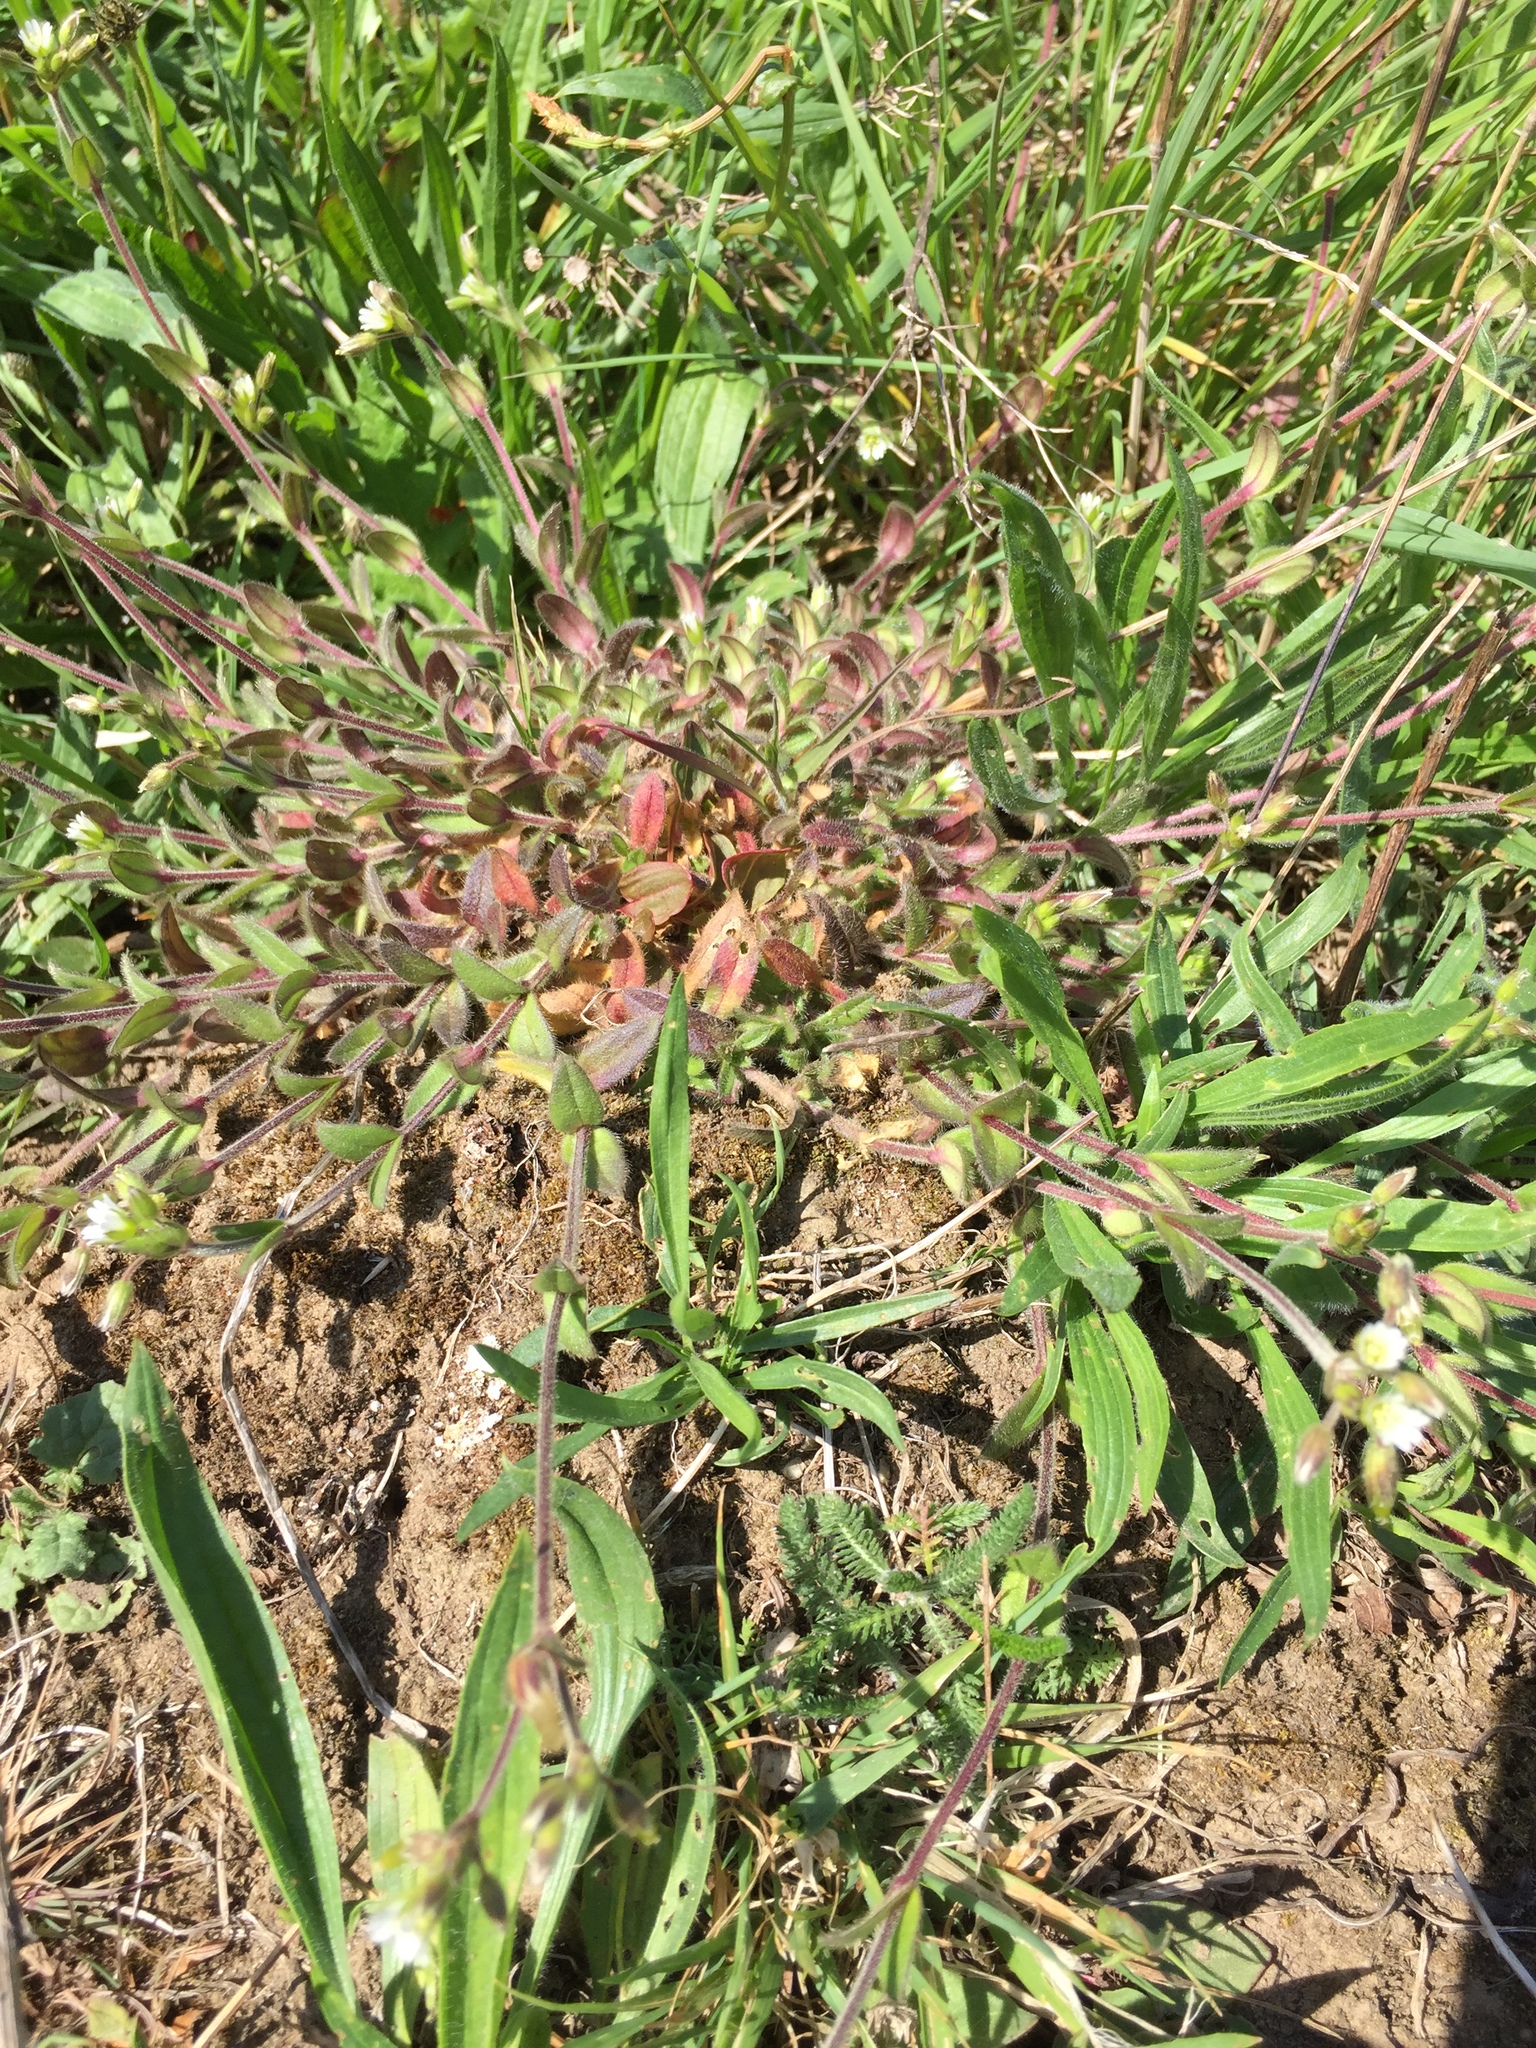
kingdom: Plantae
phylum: Tracheophyta
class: Magnoliopsida
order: Caryophyllales
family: Caryophyllaceae
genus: Cerastium
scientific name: Cerastium fontanum
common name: Common mouse-ear
